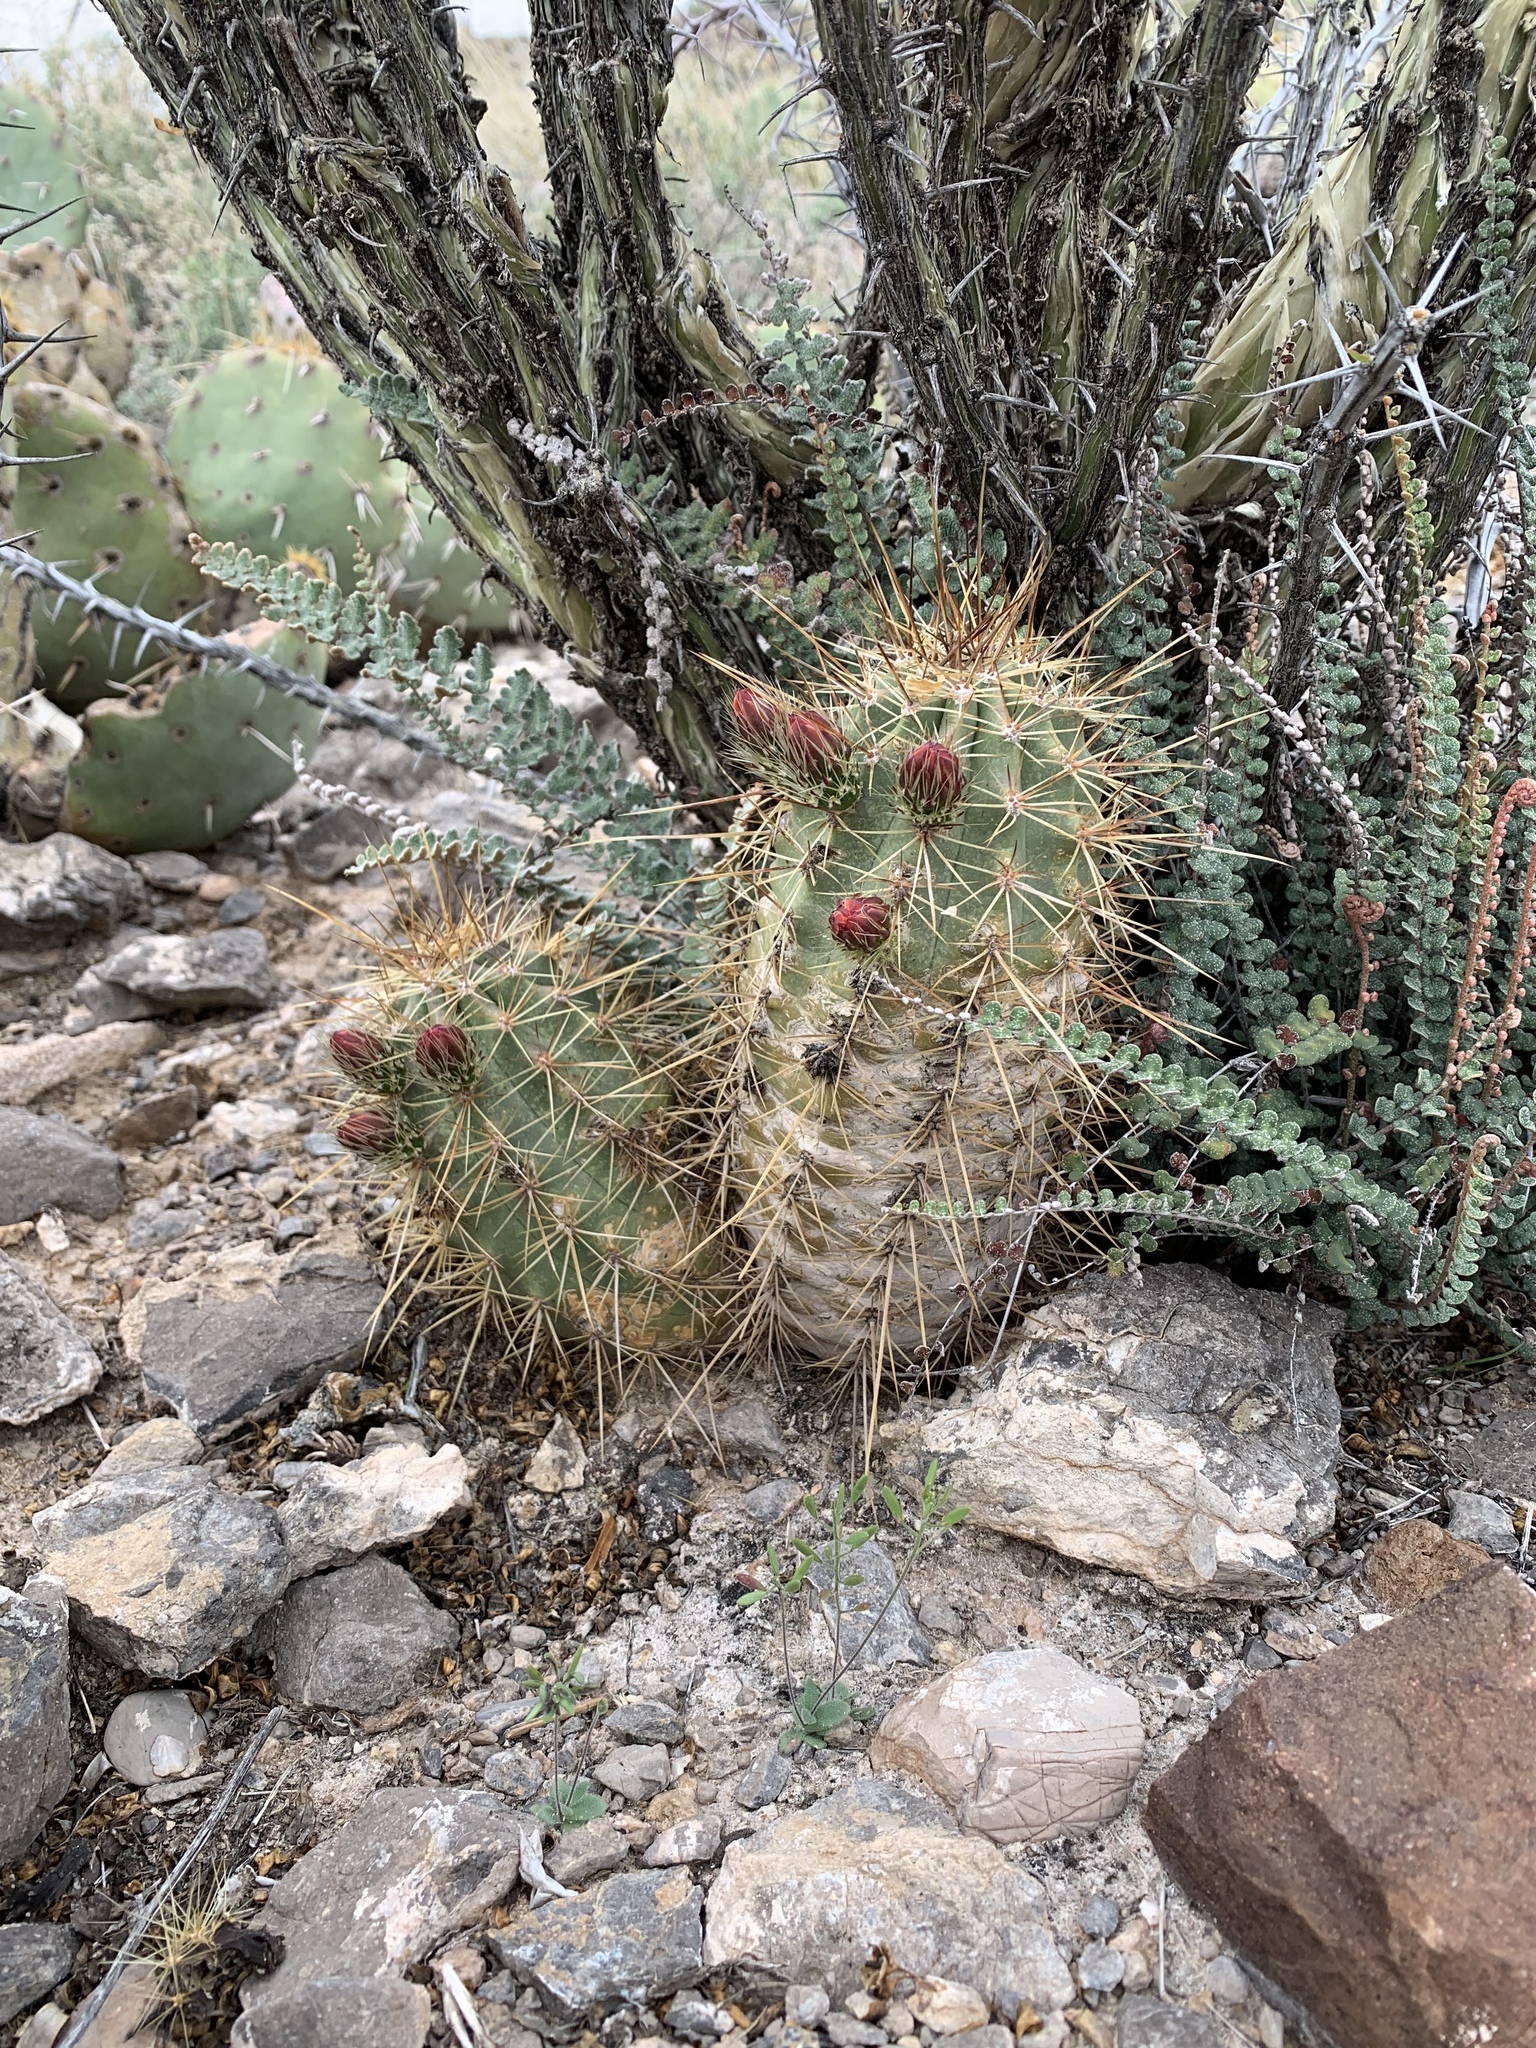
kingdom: Plantae
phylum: Tracheophyta
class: Magnoliopsida
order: Caryophyllales
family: Cactaceae
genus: Echinocereus
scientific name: Echinocereus coccineus
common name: Scarlet hedgehog cactus
